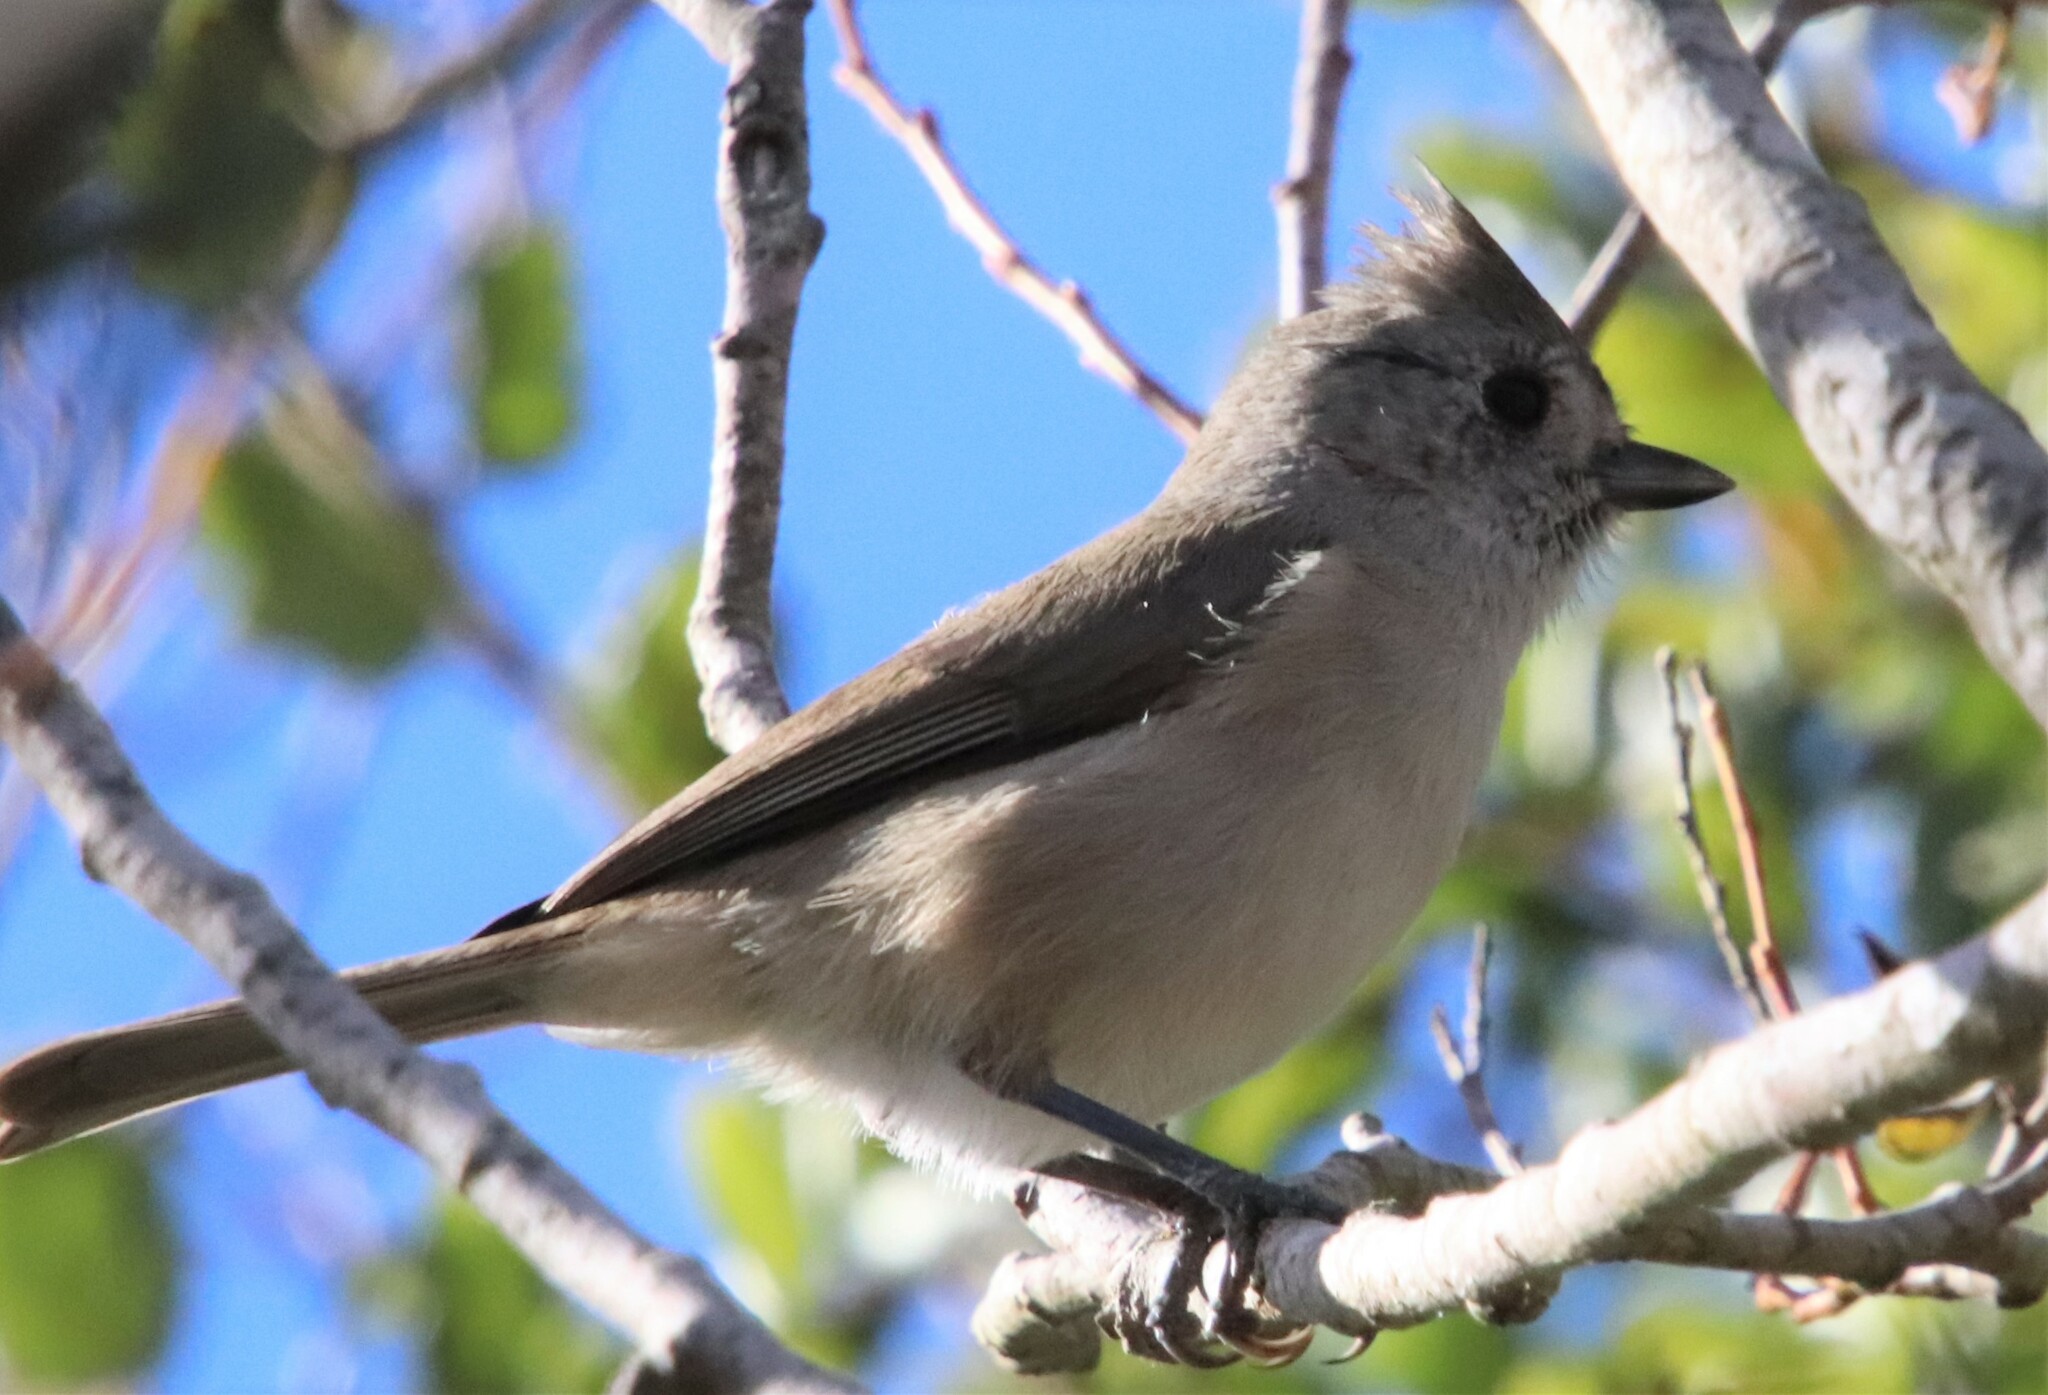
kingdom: Animalia
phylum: Chordata
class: Aves
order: Passeriformes
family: Paridae
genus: Baeolophus
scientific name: Baeolophus inornatus
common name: Oak titmouse
